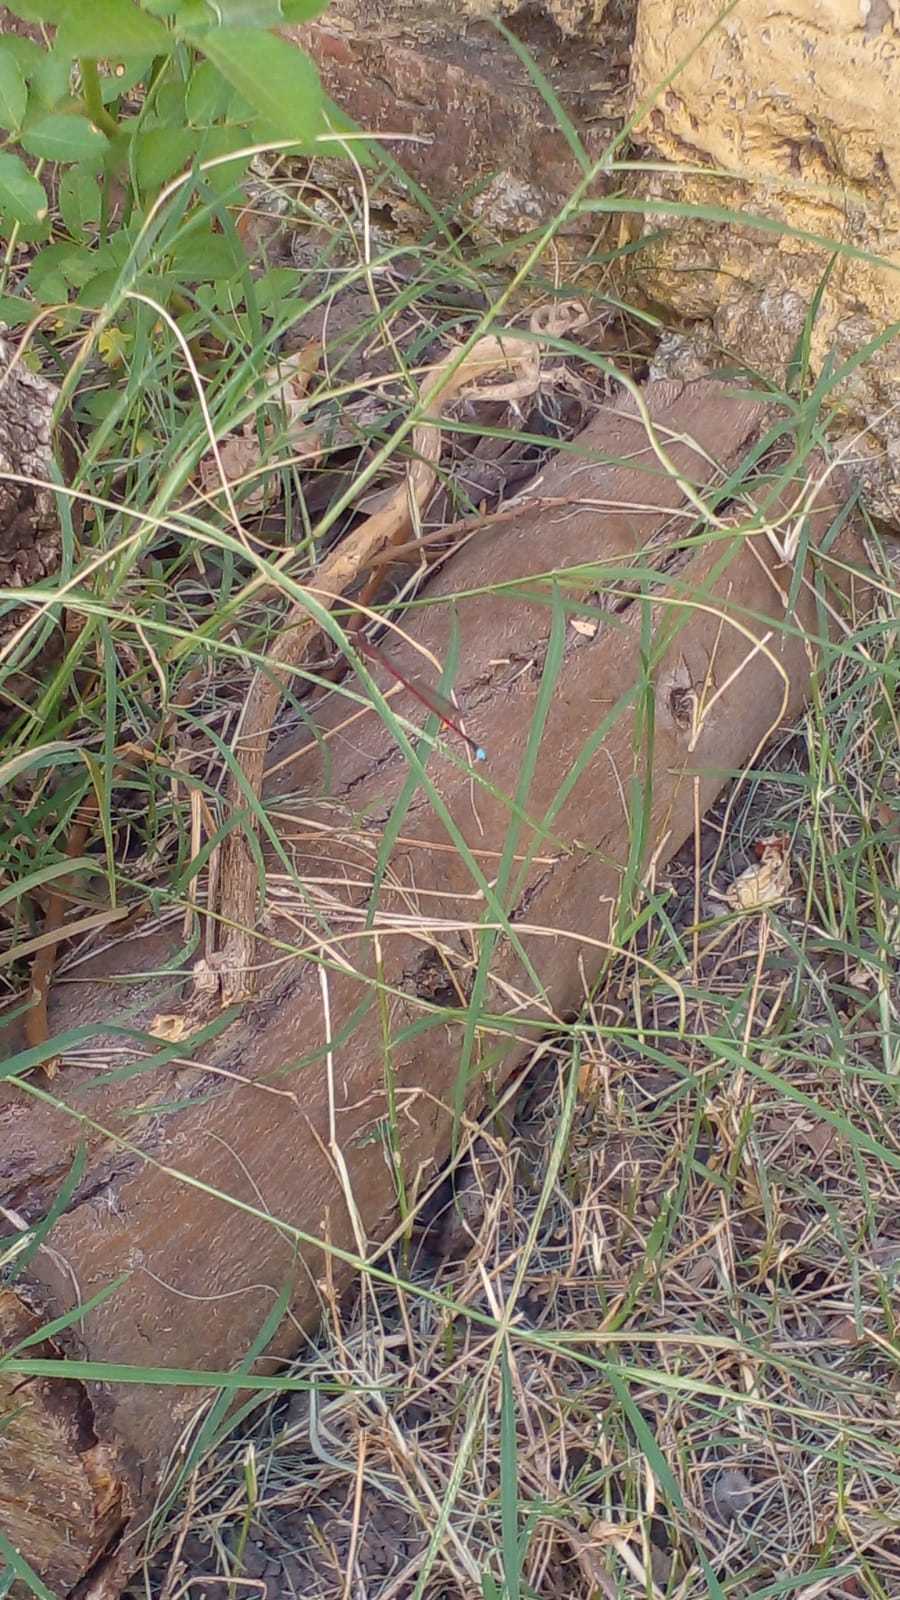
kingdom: Animalia
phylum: Arthropoda
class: Insecta
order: Odonata
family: Coenagrionidae
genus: Oxyagrion
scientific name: Oxyagrion rubidum
